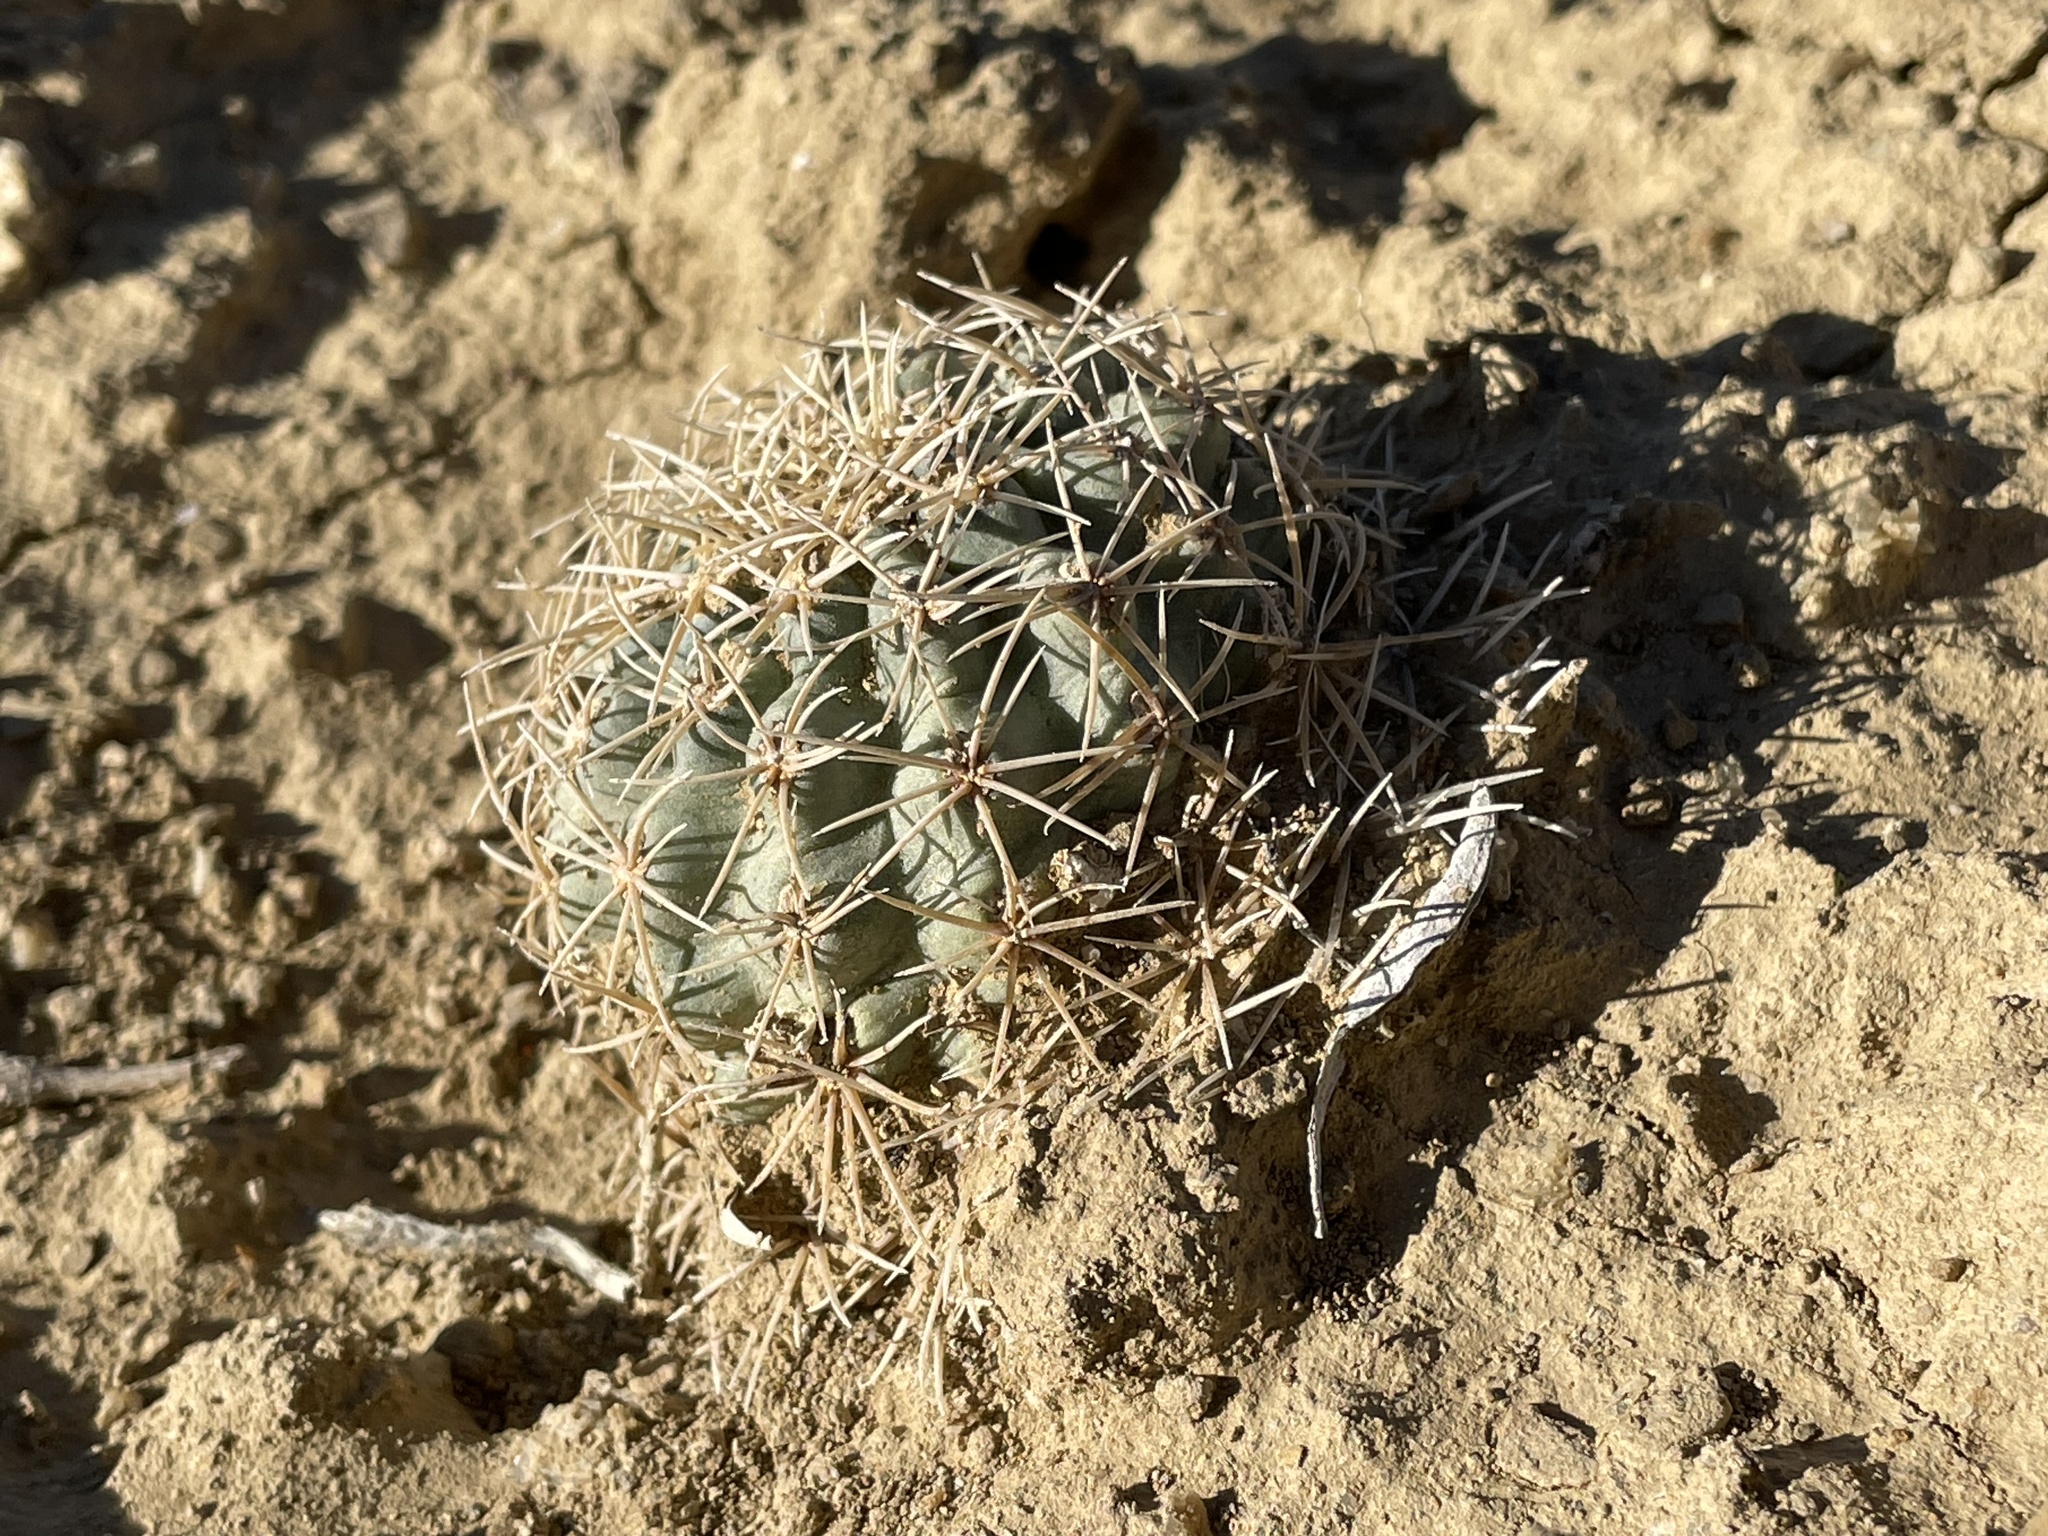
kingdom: Plantae
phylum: Tracheophyta
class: Magnoliopsida
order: Caryophyllales
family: Cactaceae
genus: Sclerocactus
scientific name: Sclerocactus mesae-verdae
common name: Mesa verde cactus
